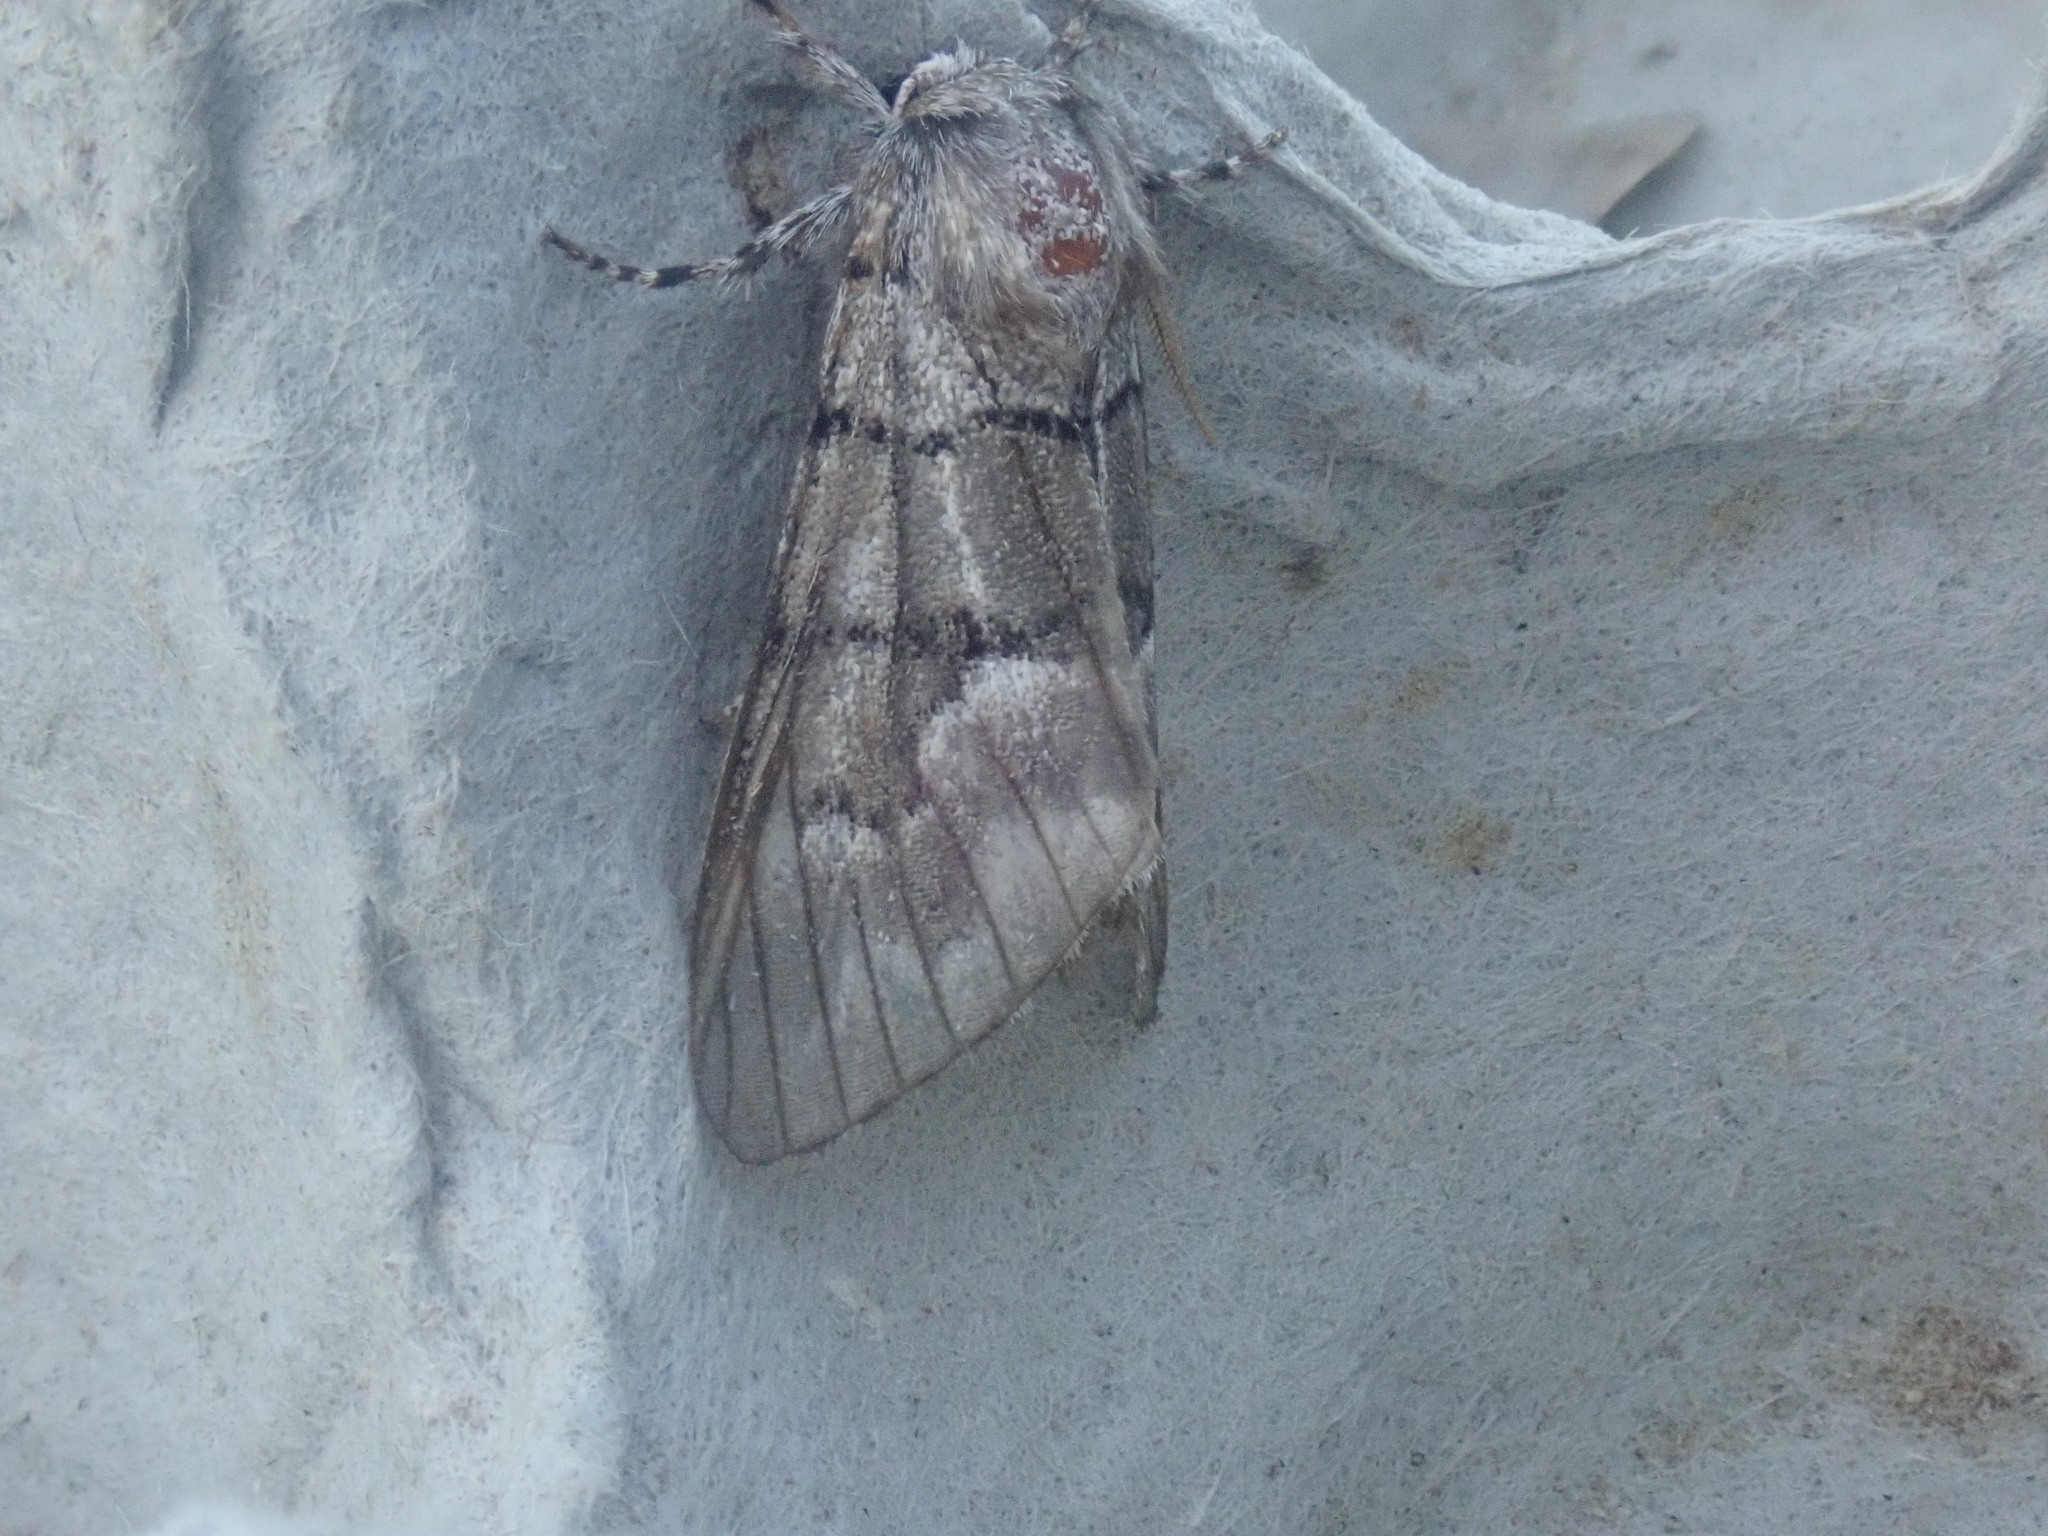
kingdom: Animalia
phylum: Arthropoda
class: Insecta
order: Lepidoptera
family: Noctuidae
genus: Panthea
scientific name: Panthea furcilla
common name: Eastern panthea moth
